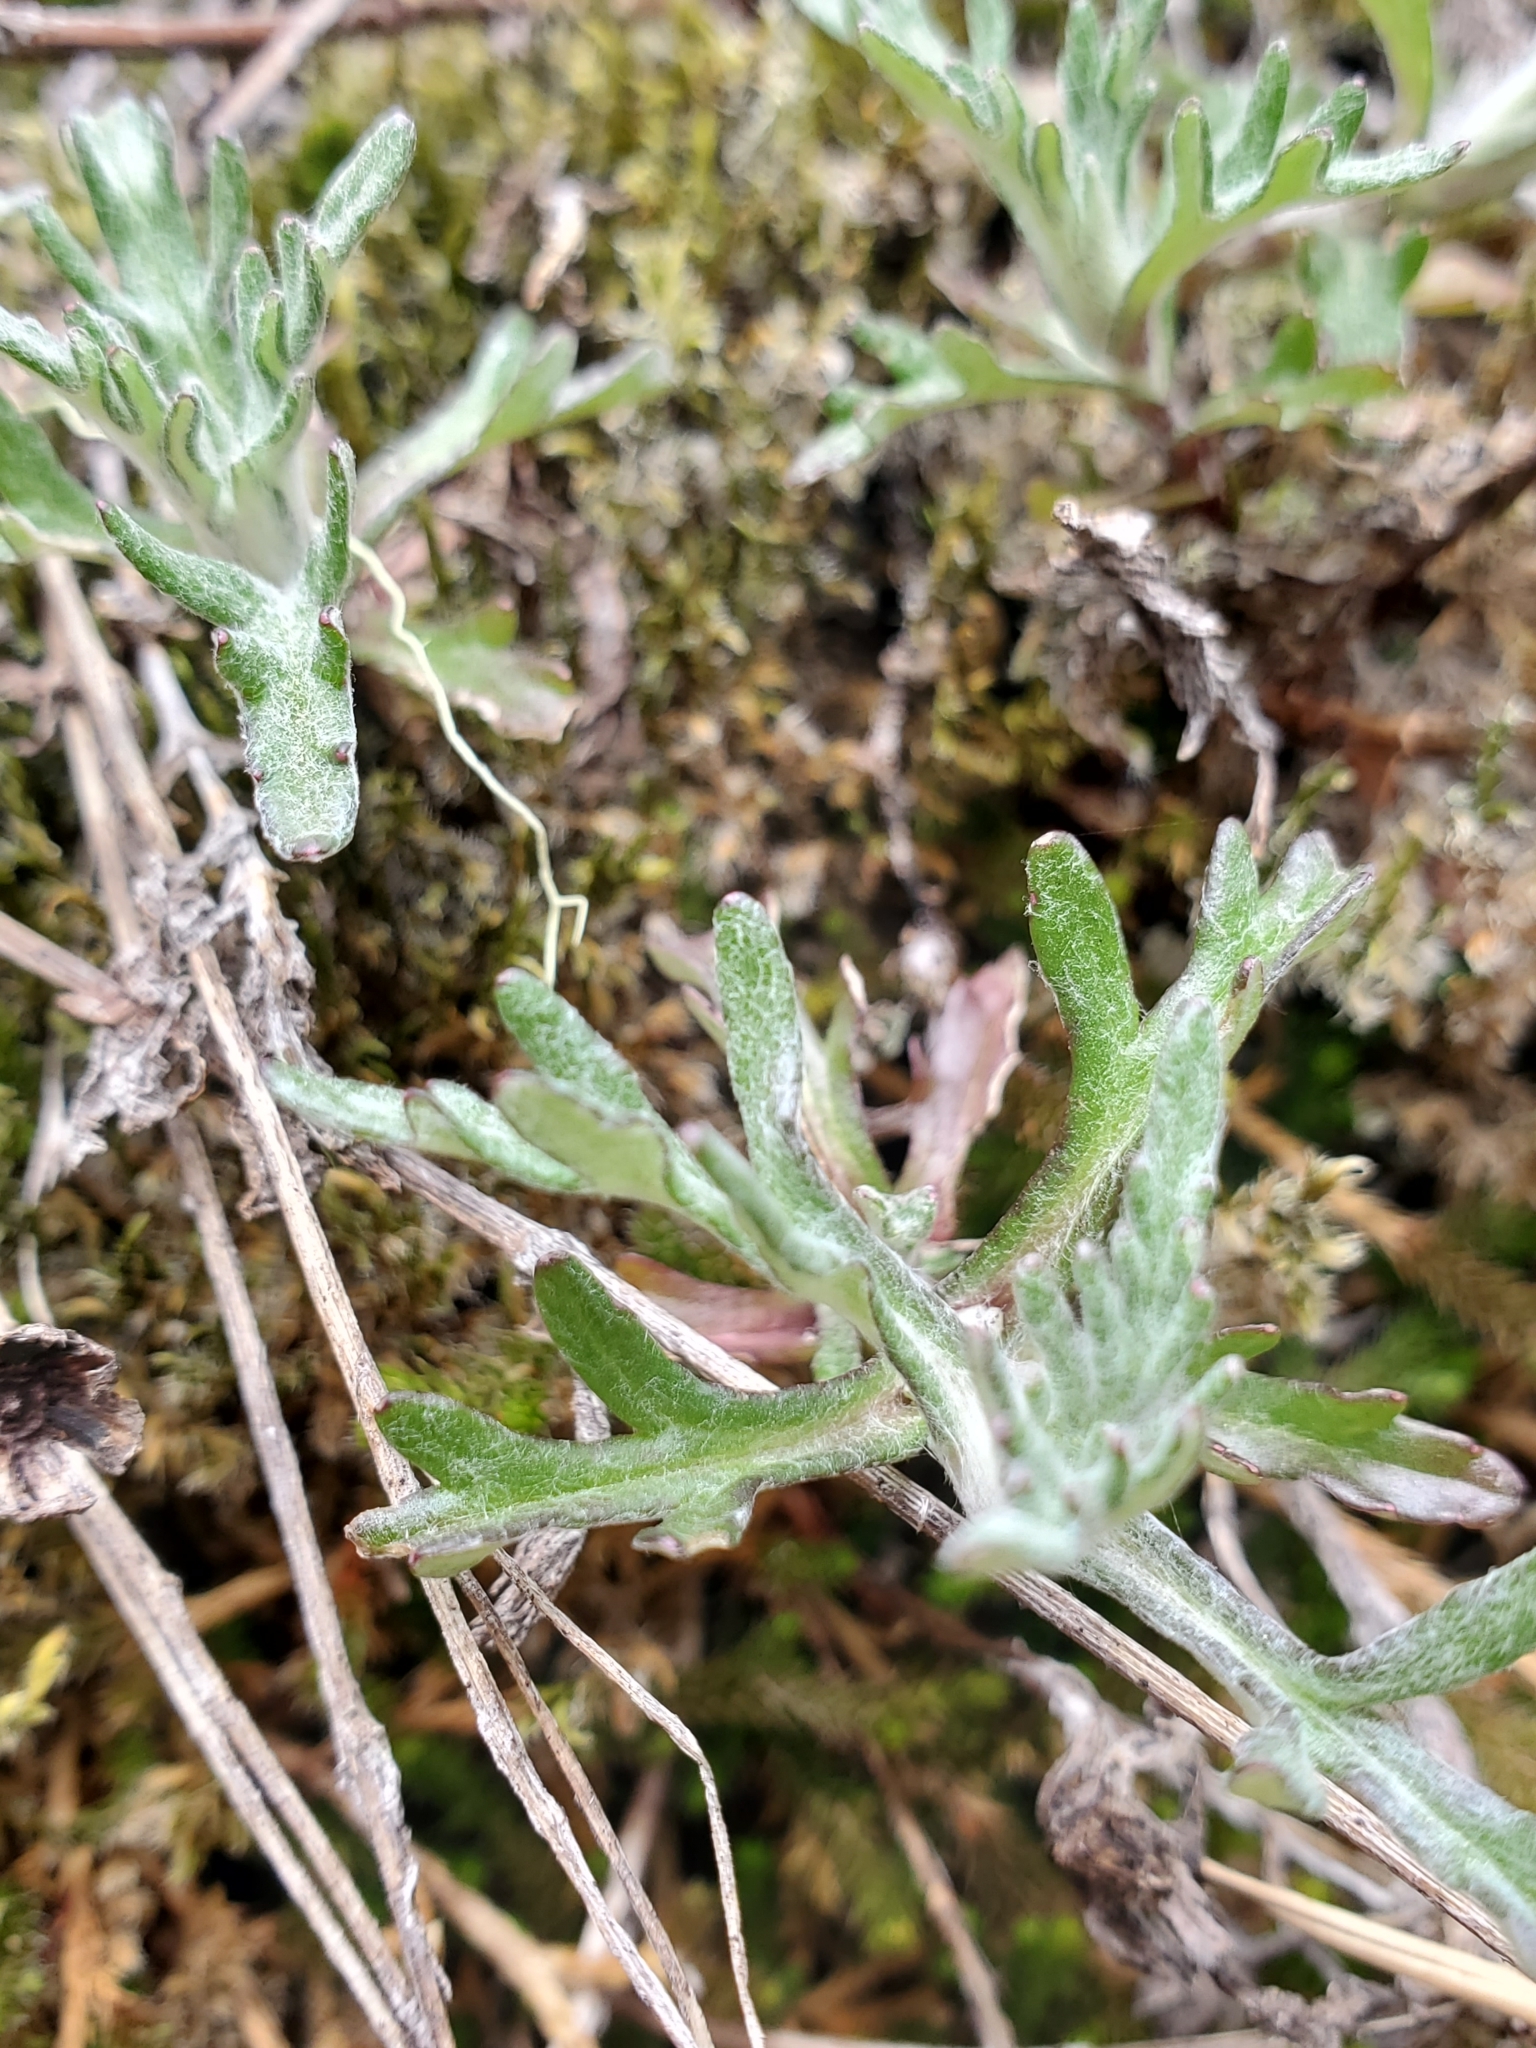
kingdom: Plantae
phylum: Tracheophyta
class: Magnoliopsida
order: Asterales
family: Asteraceae
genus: Eriophyllum
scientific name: Eriophyllum lanatum
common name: Common woolly-sunflower
